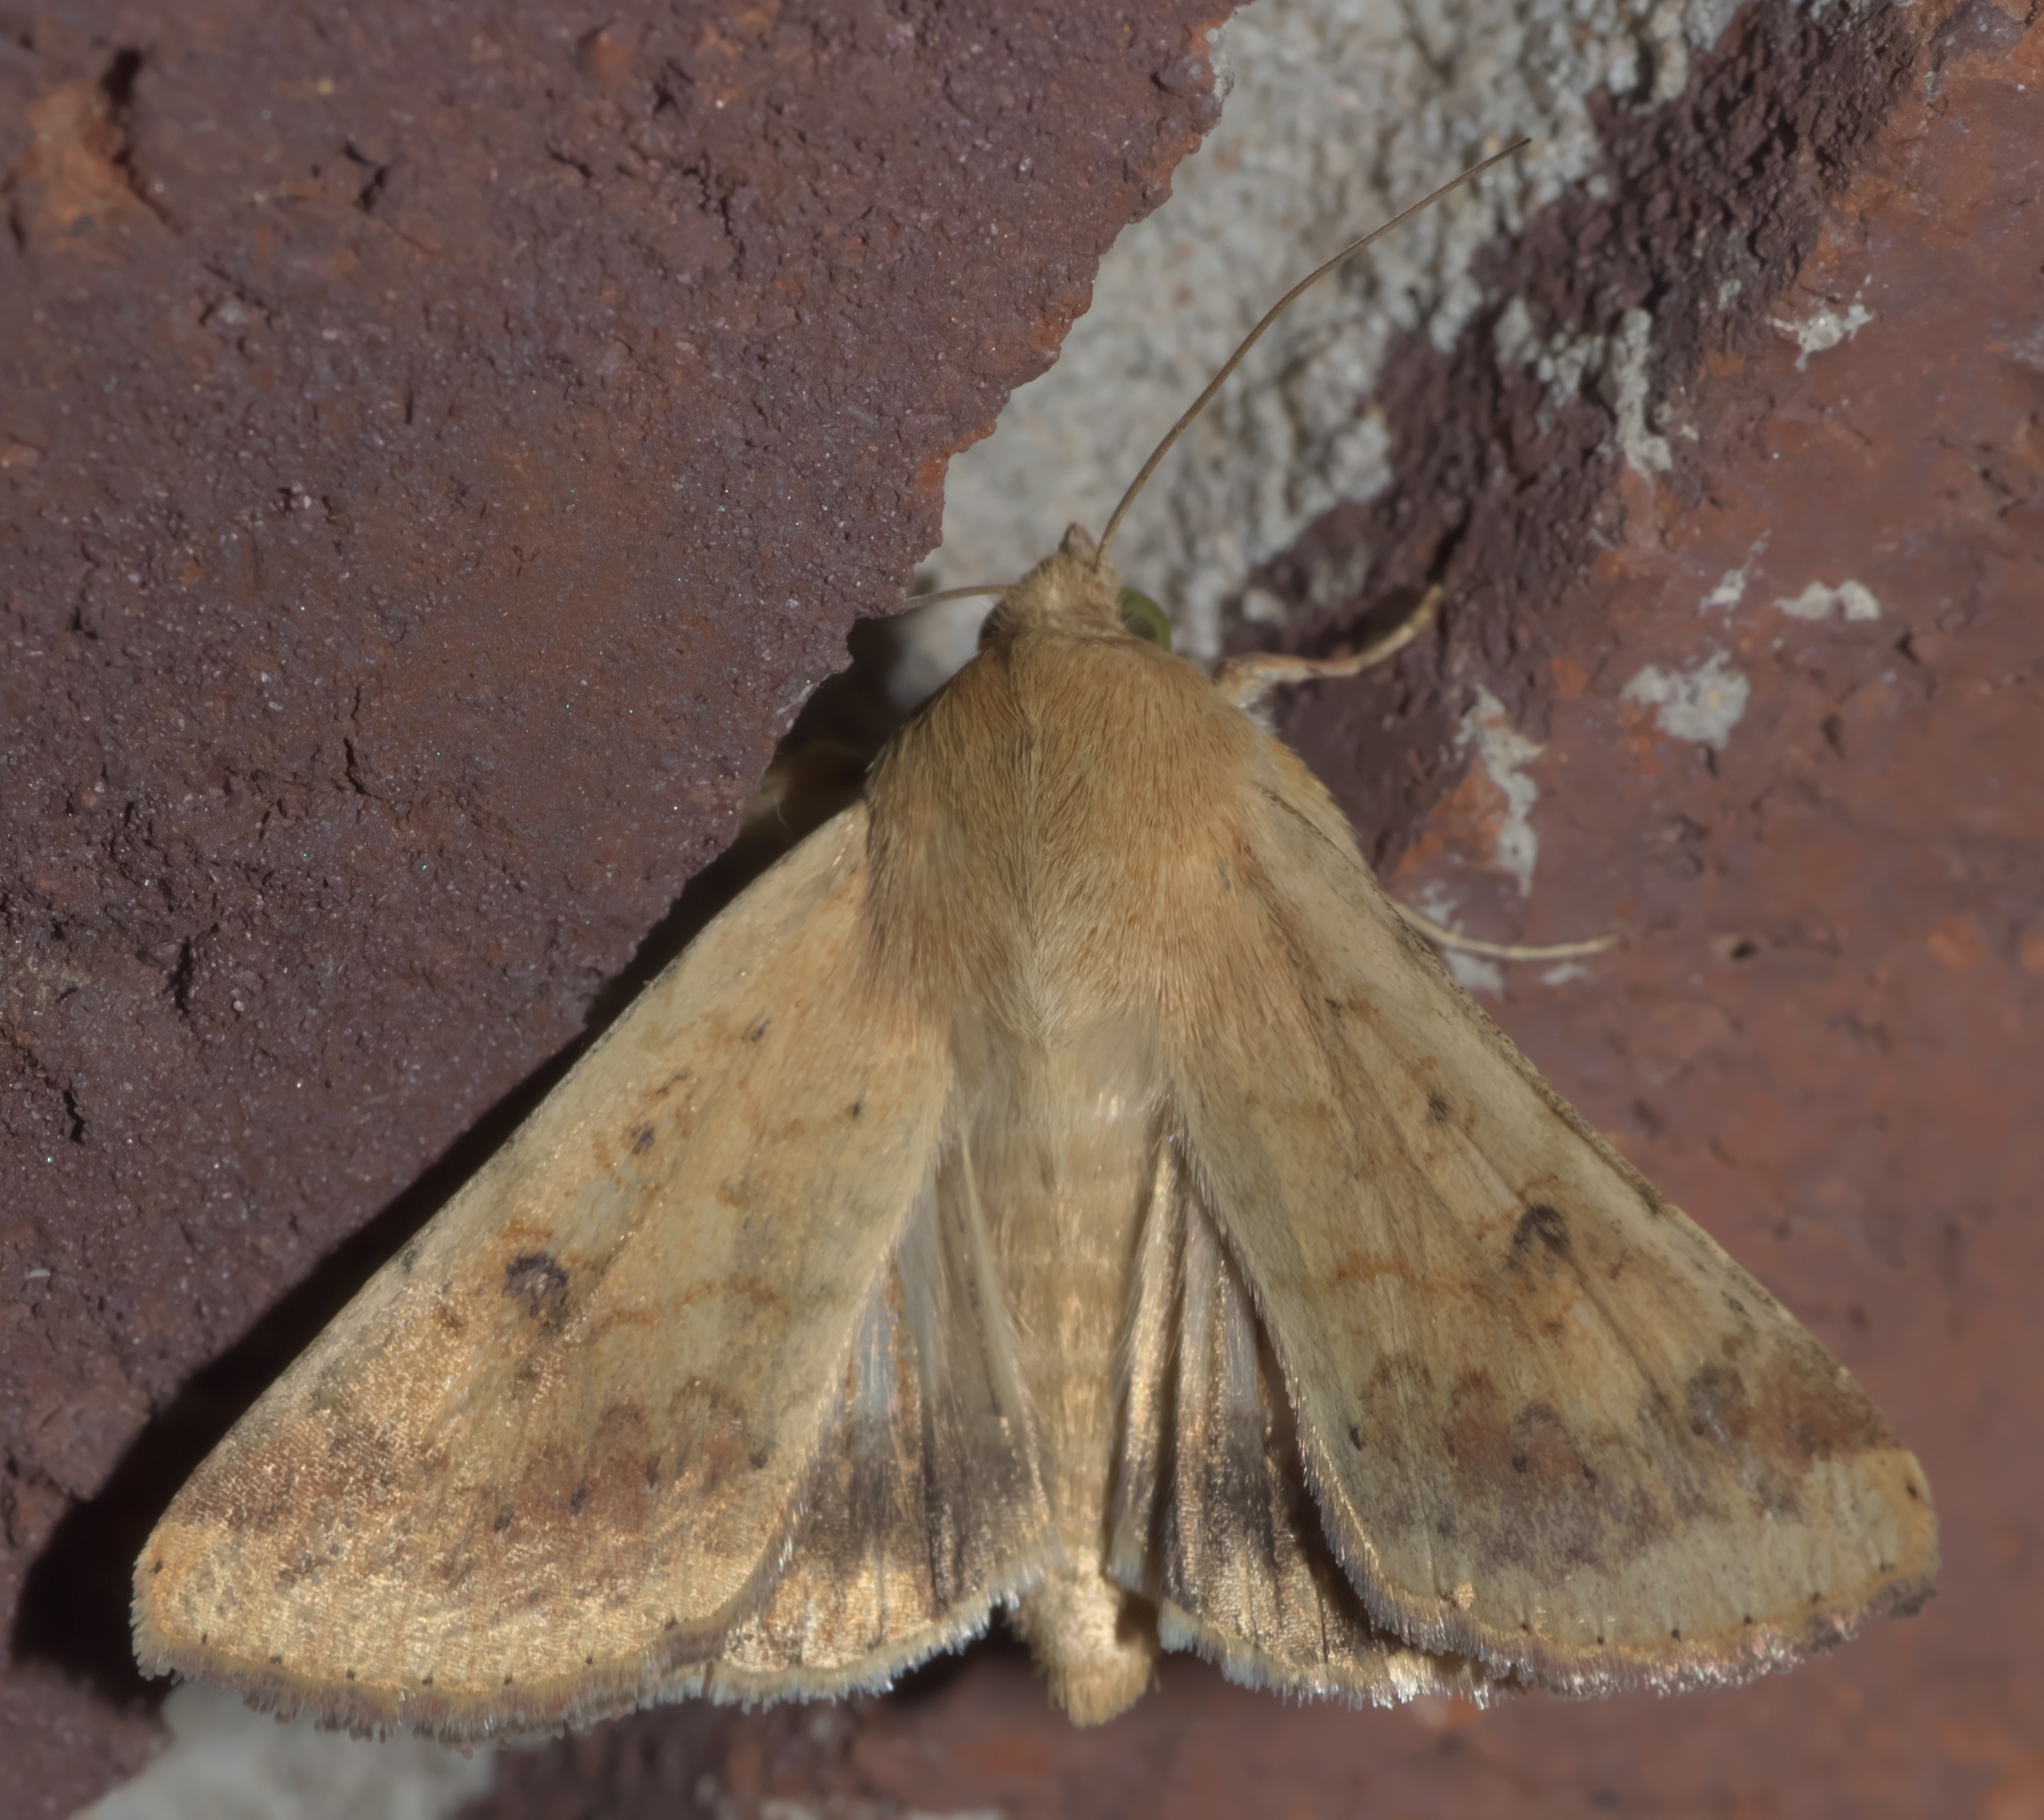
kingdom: Animalia
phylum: Arthropoda
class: Insecta
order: Lepidoptera
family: Noctuidae
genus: Helicoverpa
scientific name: Helicoverpa zea
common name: Bollworm
